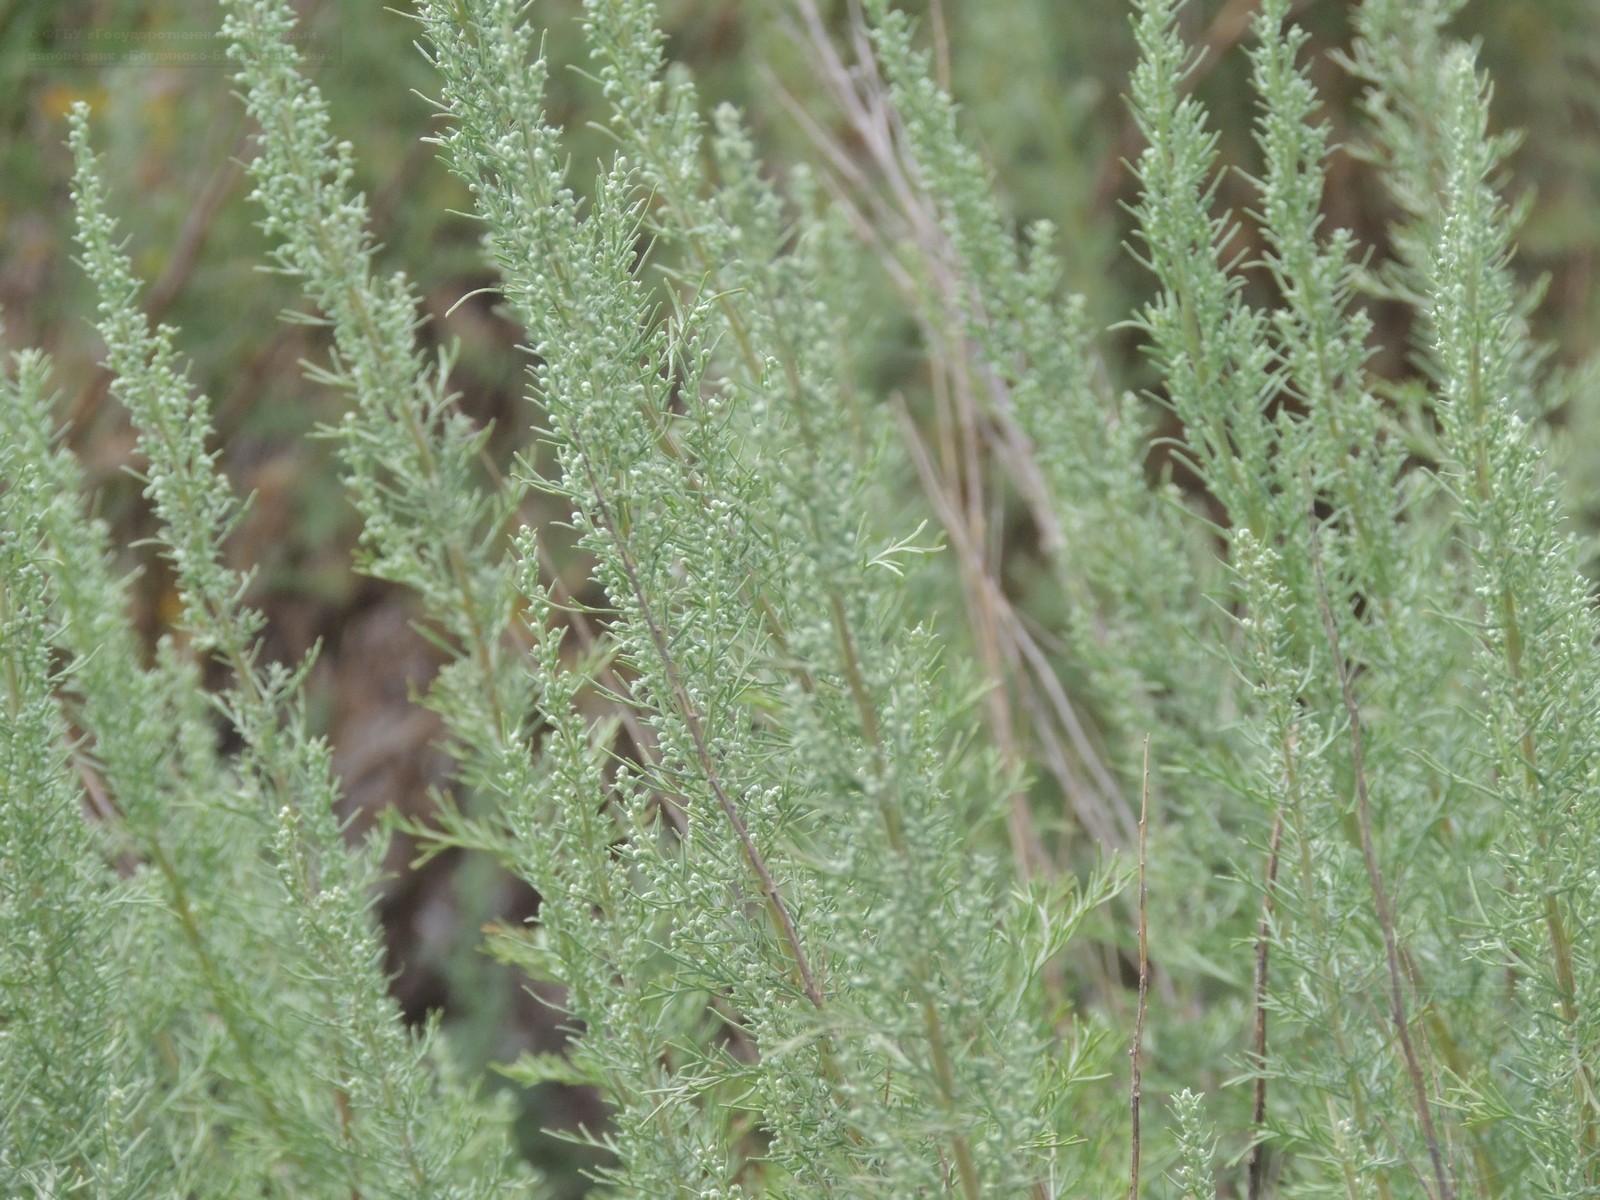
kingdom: Plantae
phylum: Tracheophyta
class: Magnoliopsida
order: Asterales
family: Asteraceae
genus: Artemisia
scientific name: Artemisia abrotanum
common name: Southernwood
